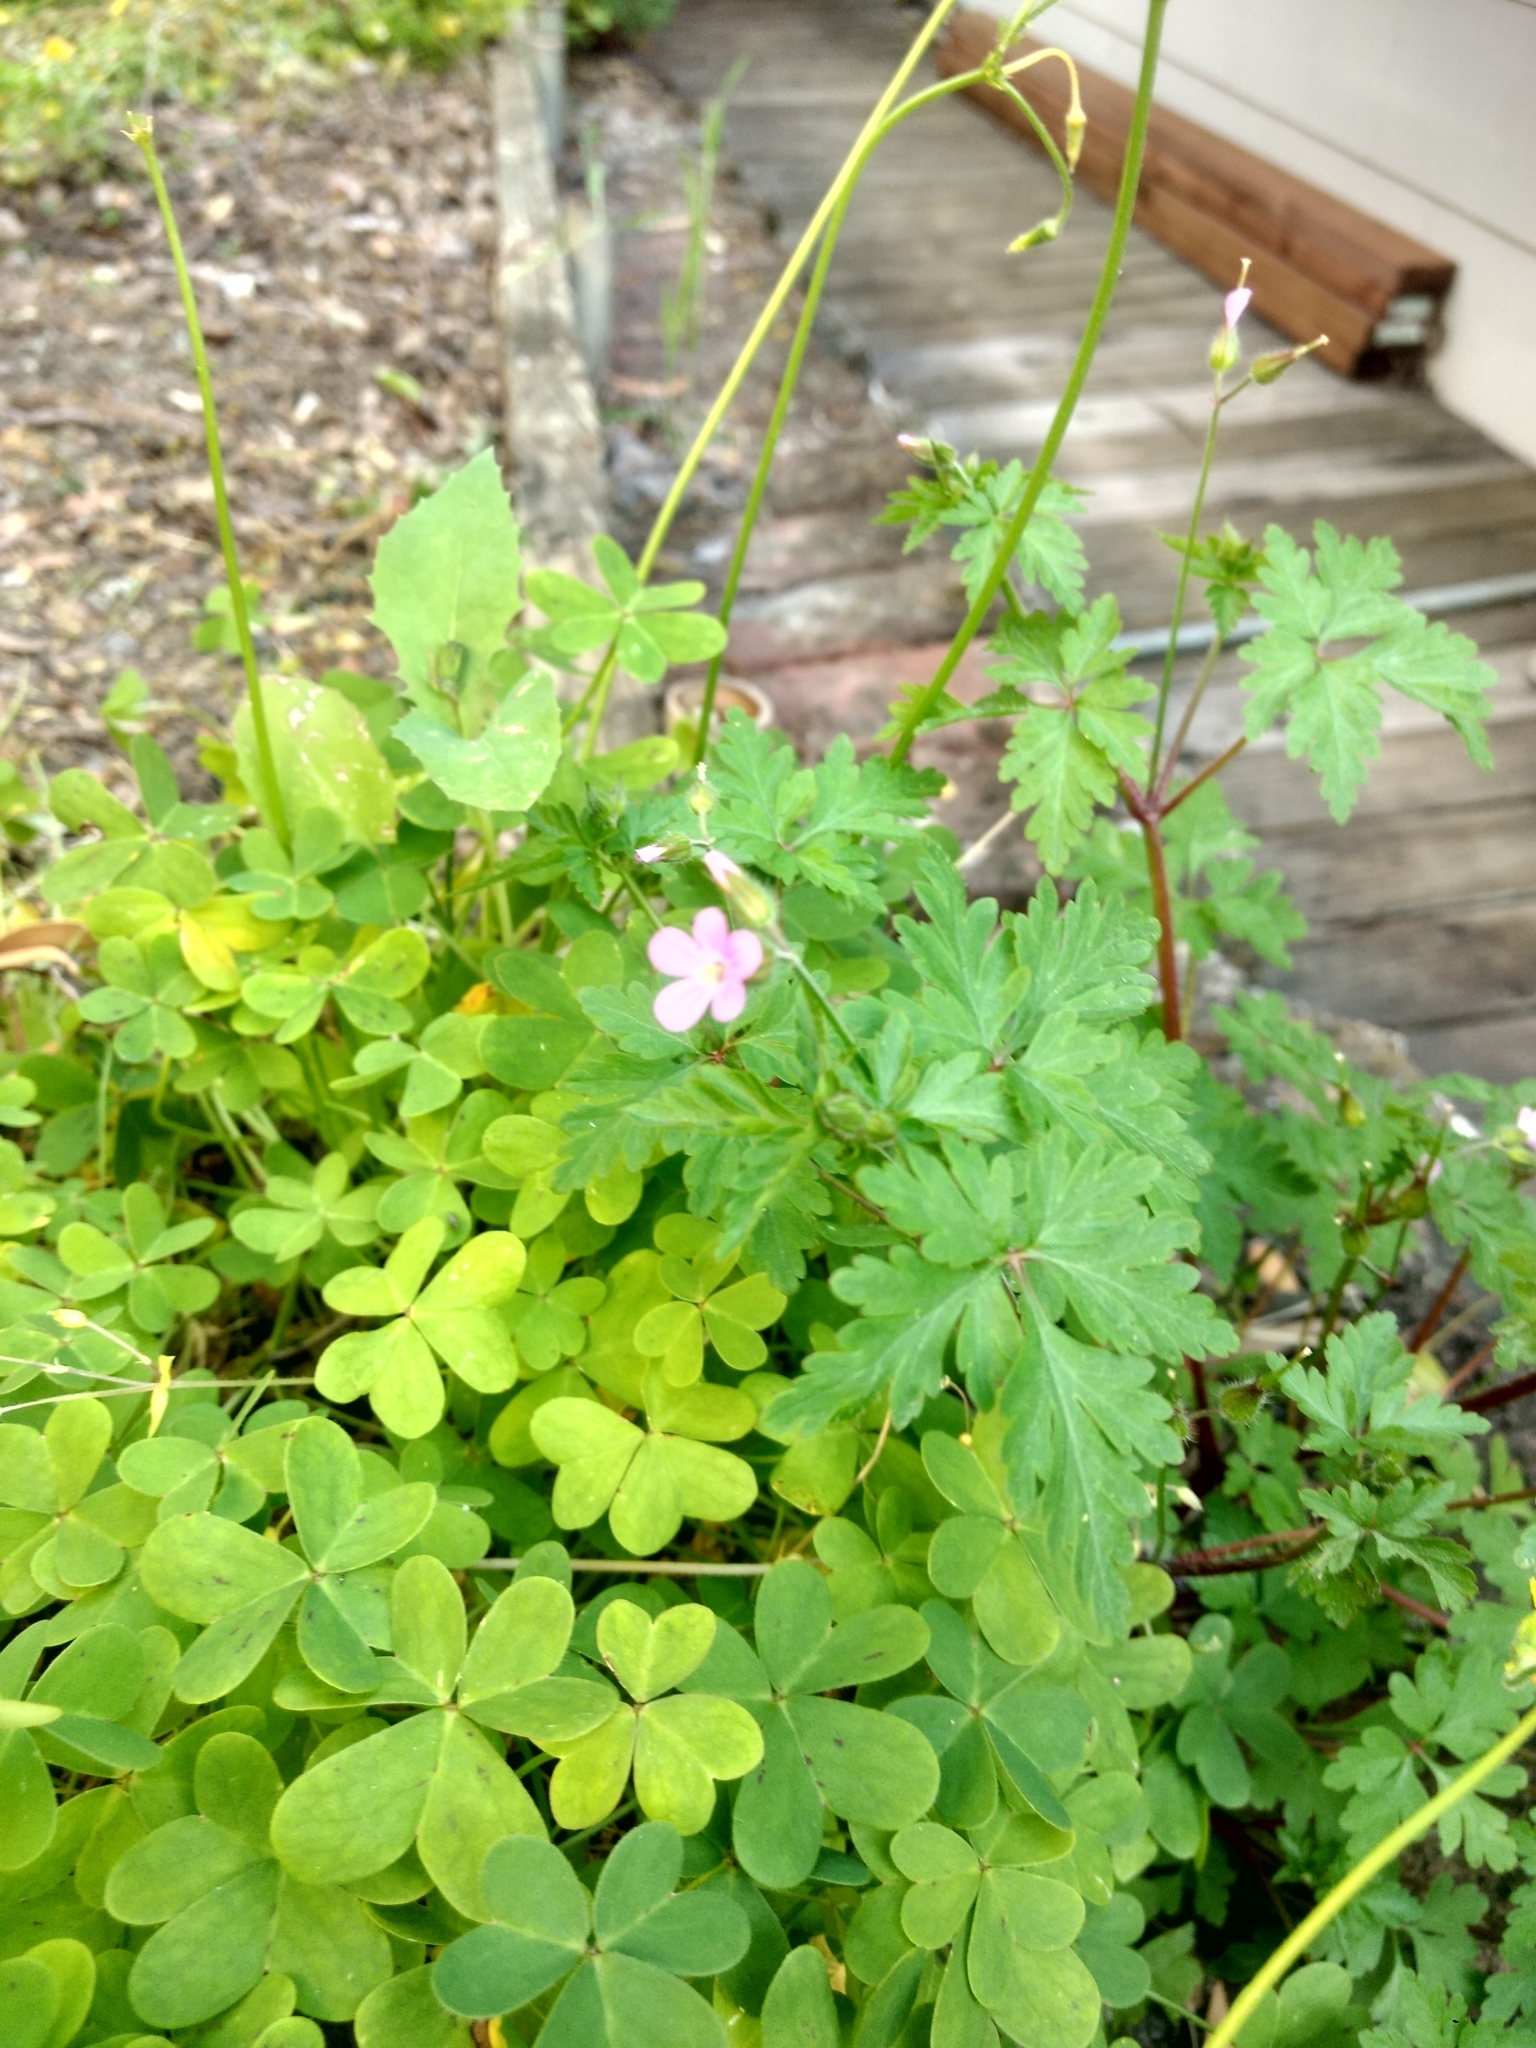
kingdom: Plantae
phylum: Tracheophyta
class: Magnoliopsida
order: Geraniales
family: Geraniaceae
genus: Geranium
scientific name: Geranium purpureum
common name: Little-robin
